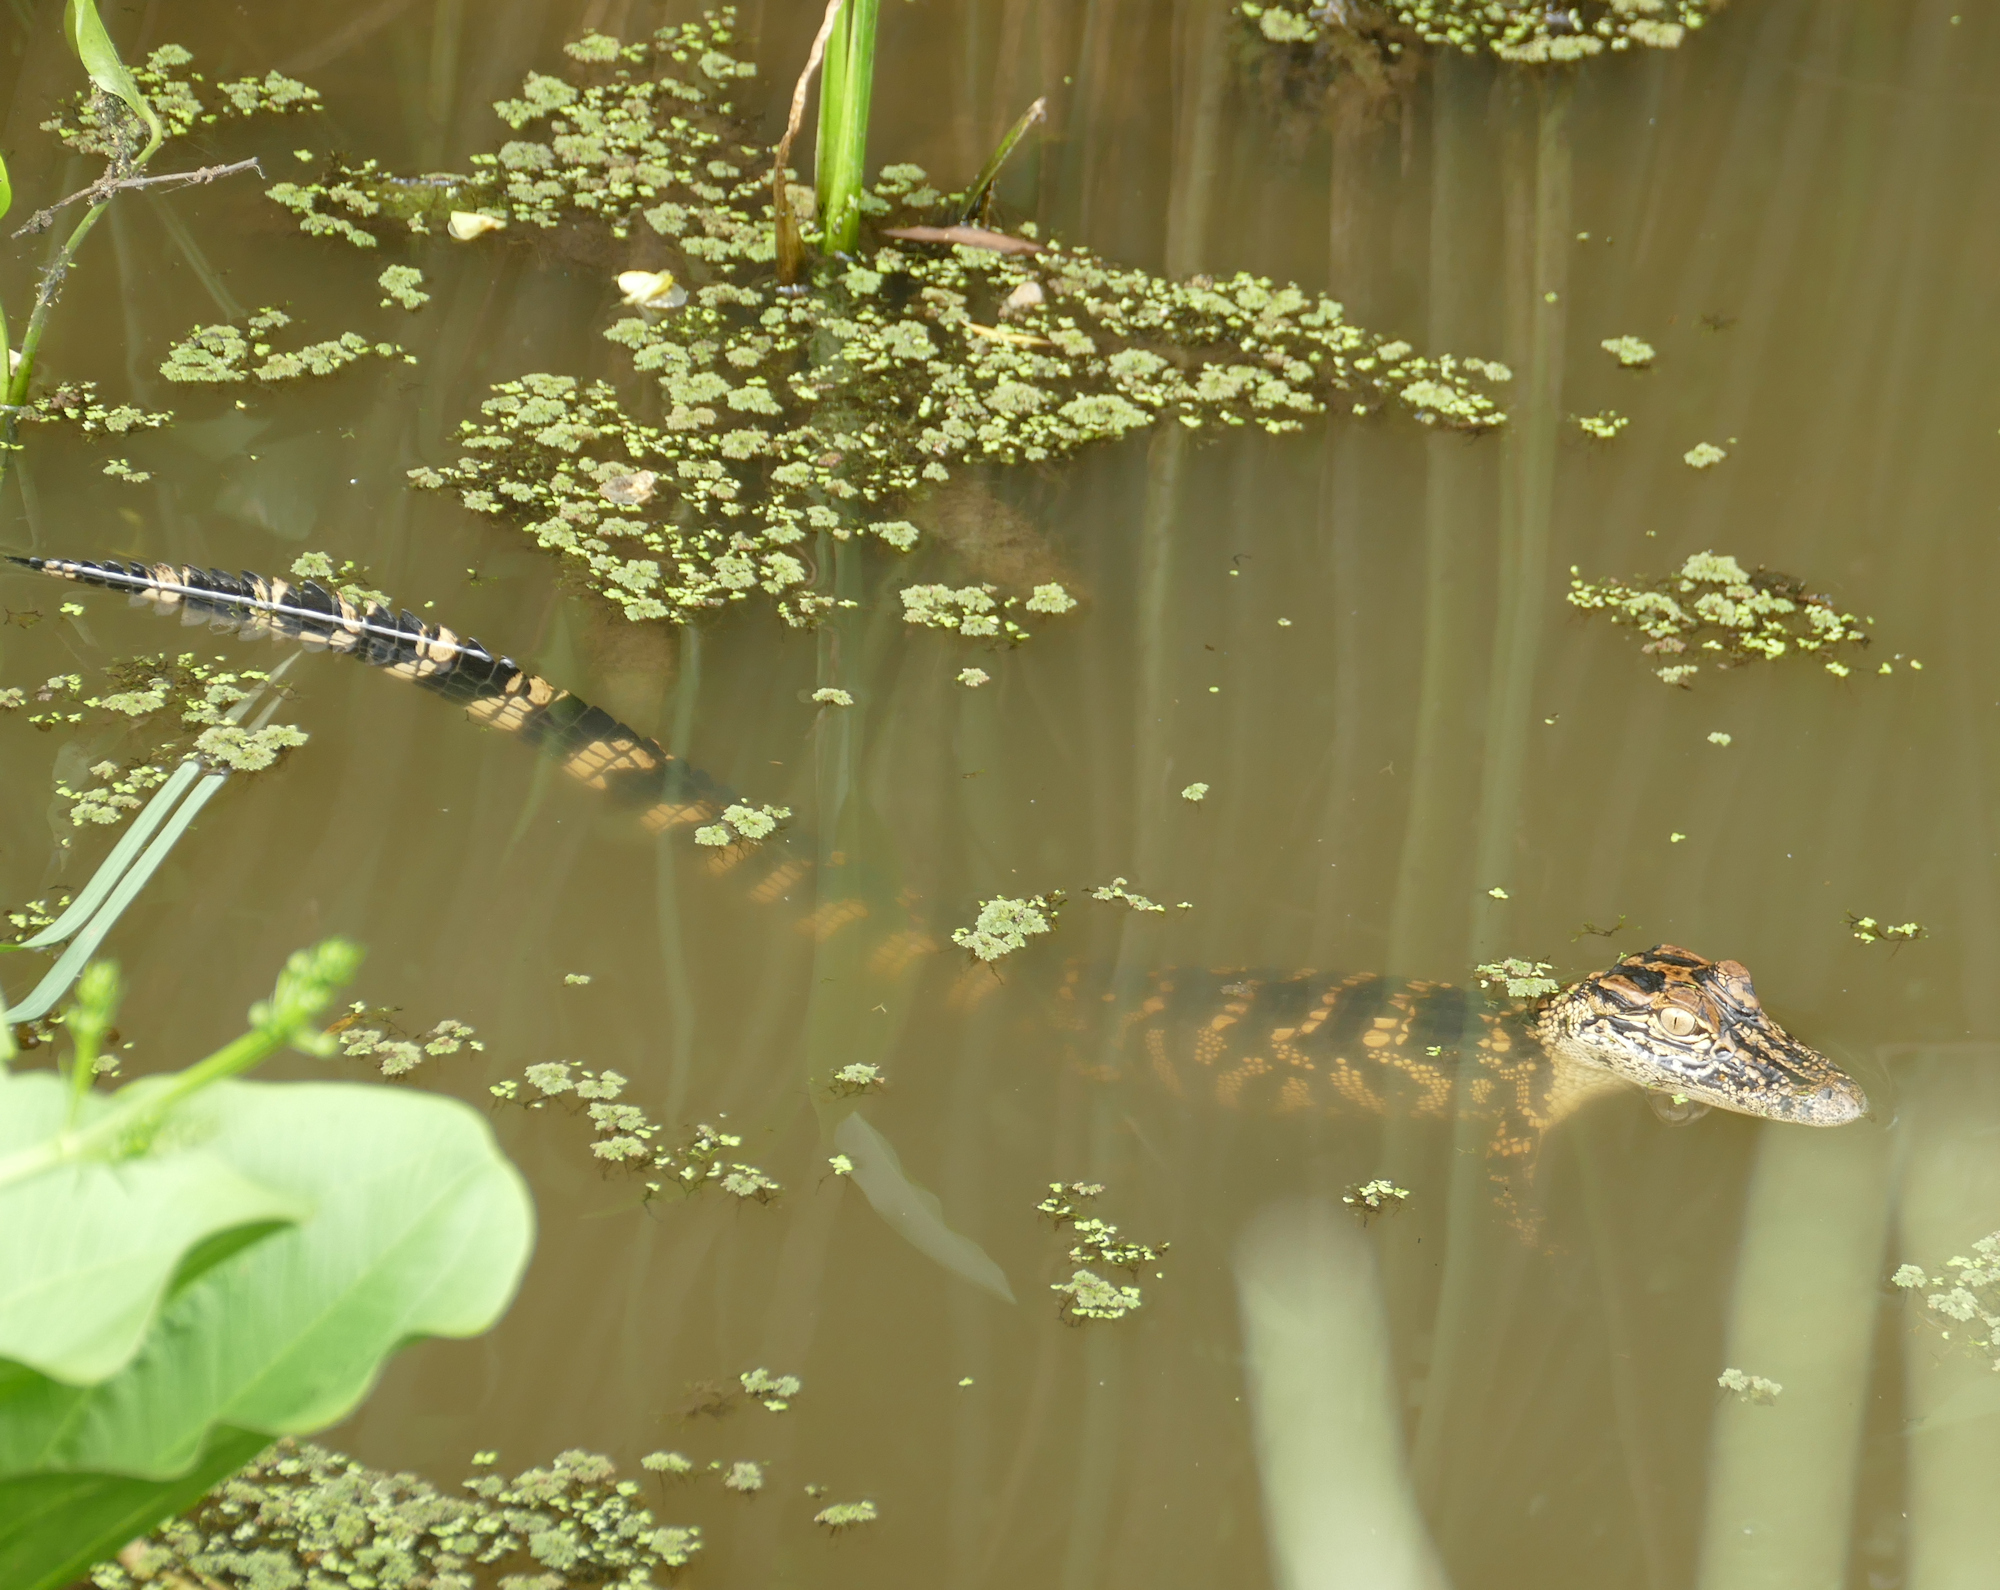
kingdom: Animalia
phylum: Chordata
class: Crocodylia
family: Alligatoridae
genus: Alligator
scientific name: Alligator mississippiensis
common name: American alligator
